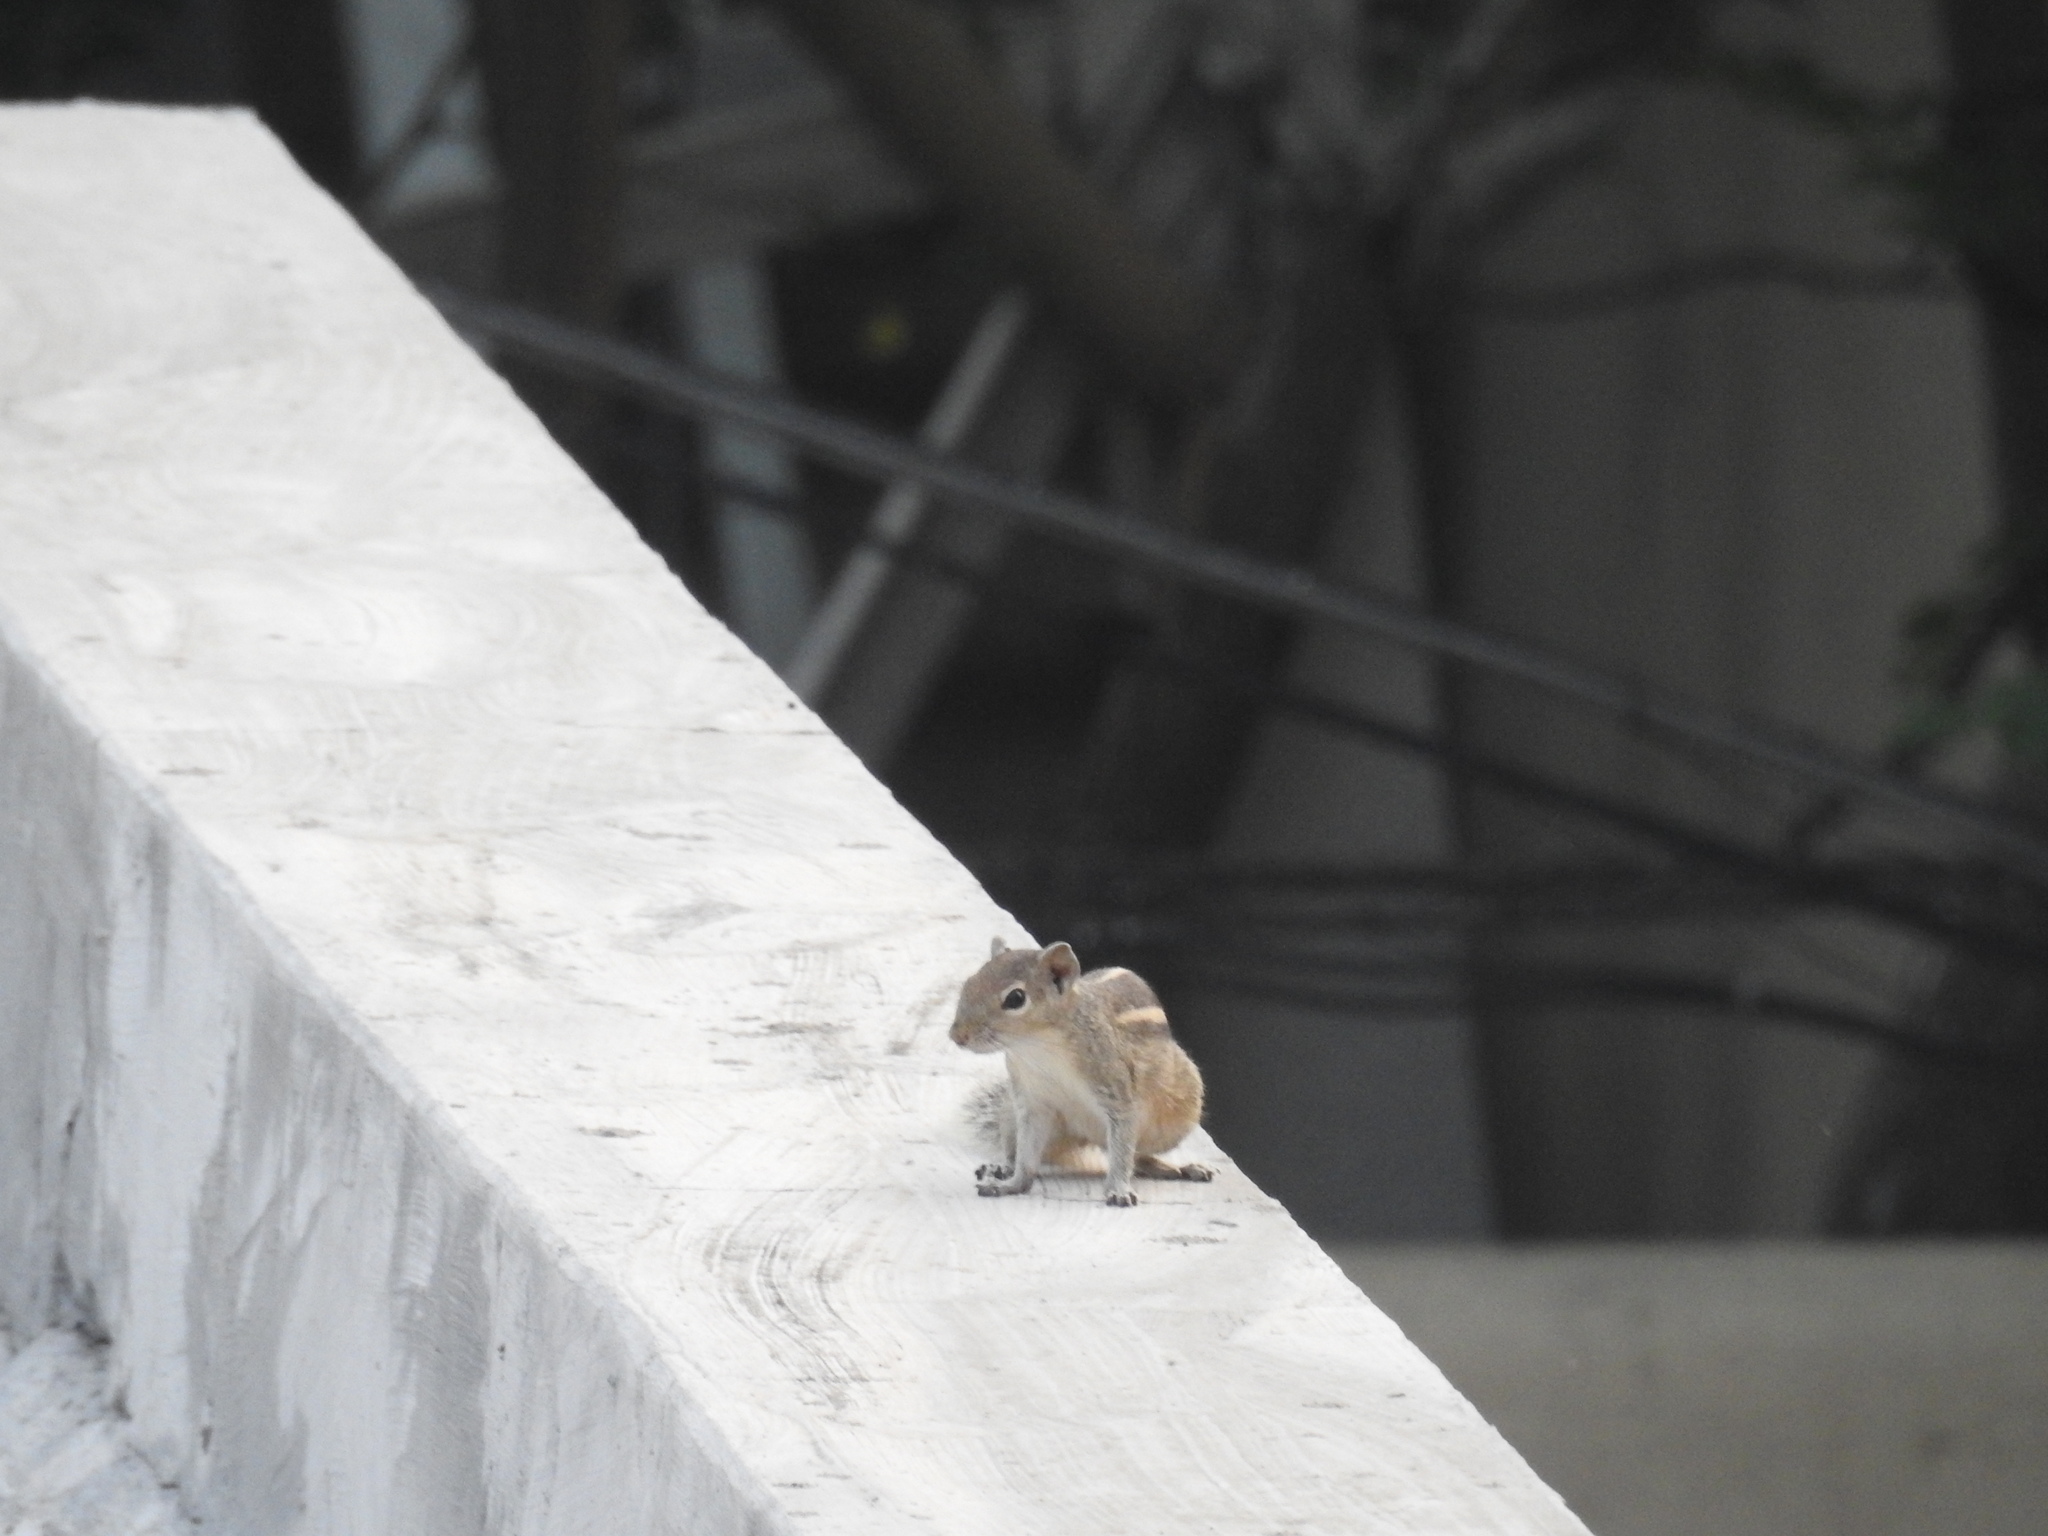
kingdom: Animalia
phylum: Chordata
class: Mammalia
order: Rodentia
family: Sciuridae
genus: Funambulus
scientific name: Funambulus palmarum
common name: Indian palm squirrel
